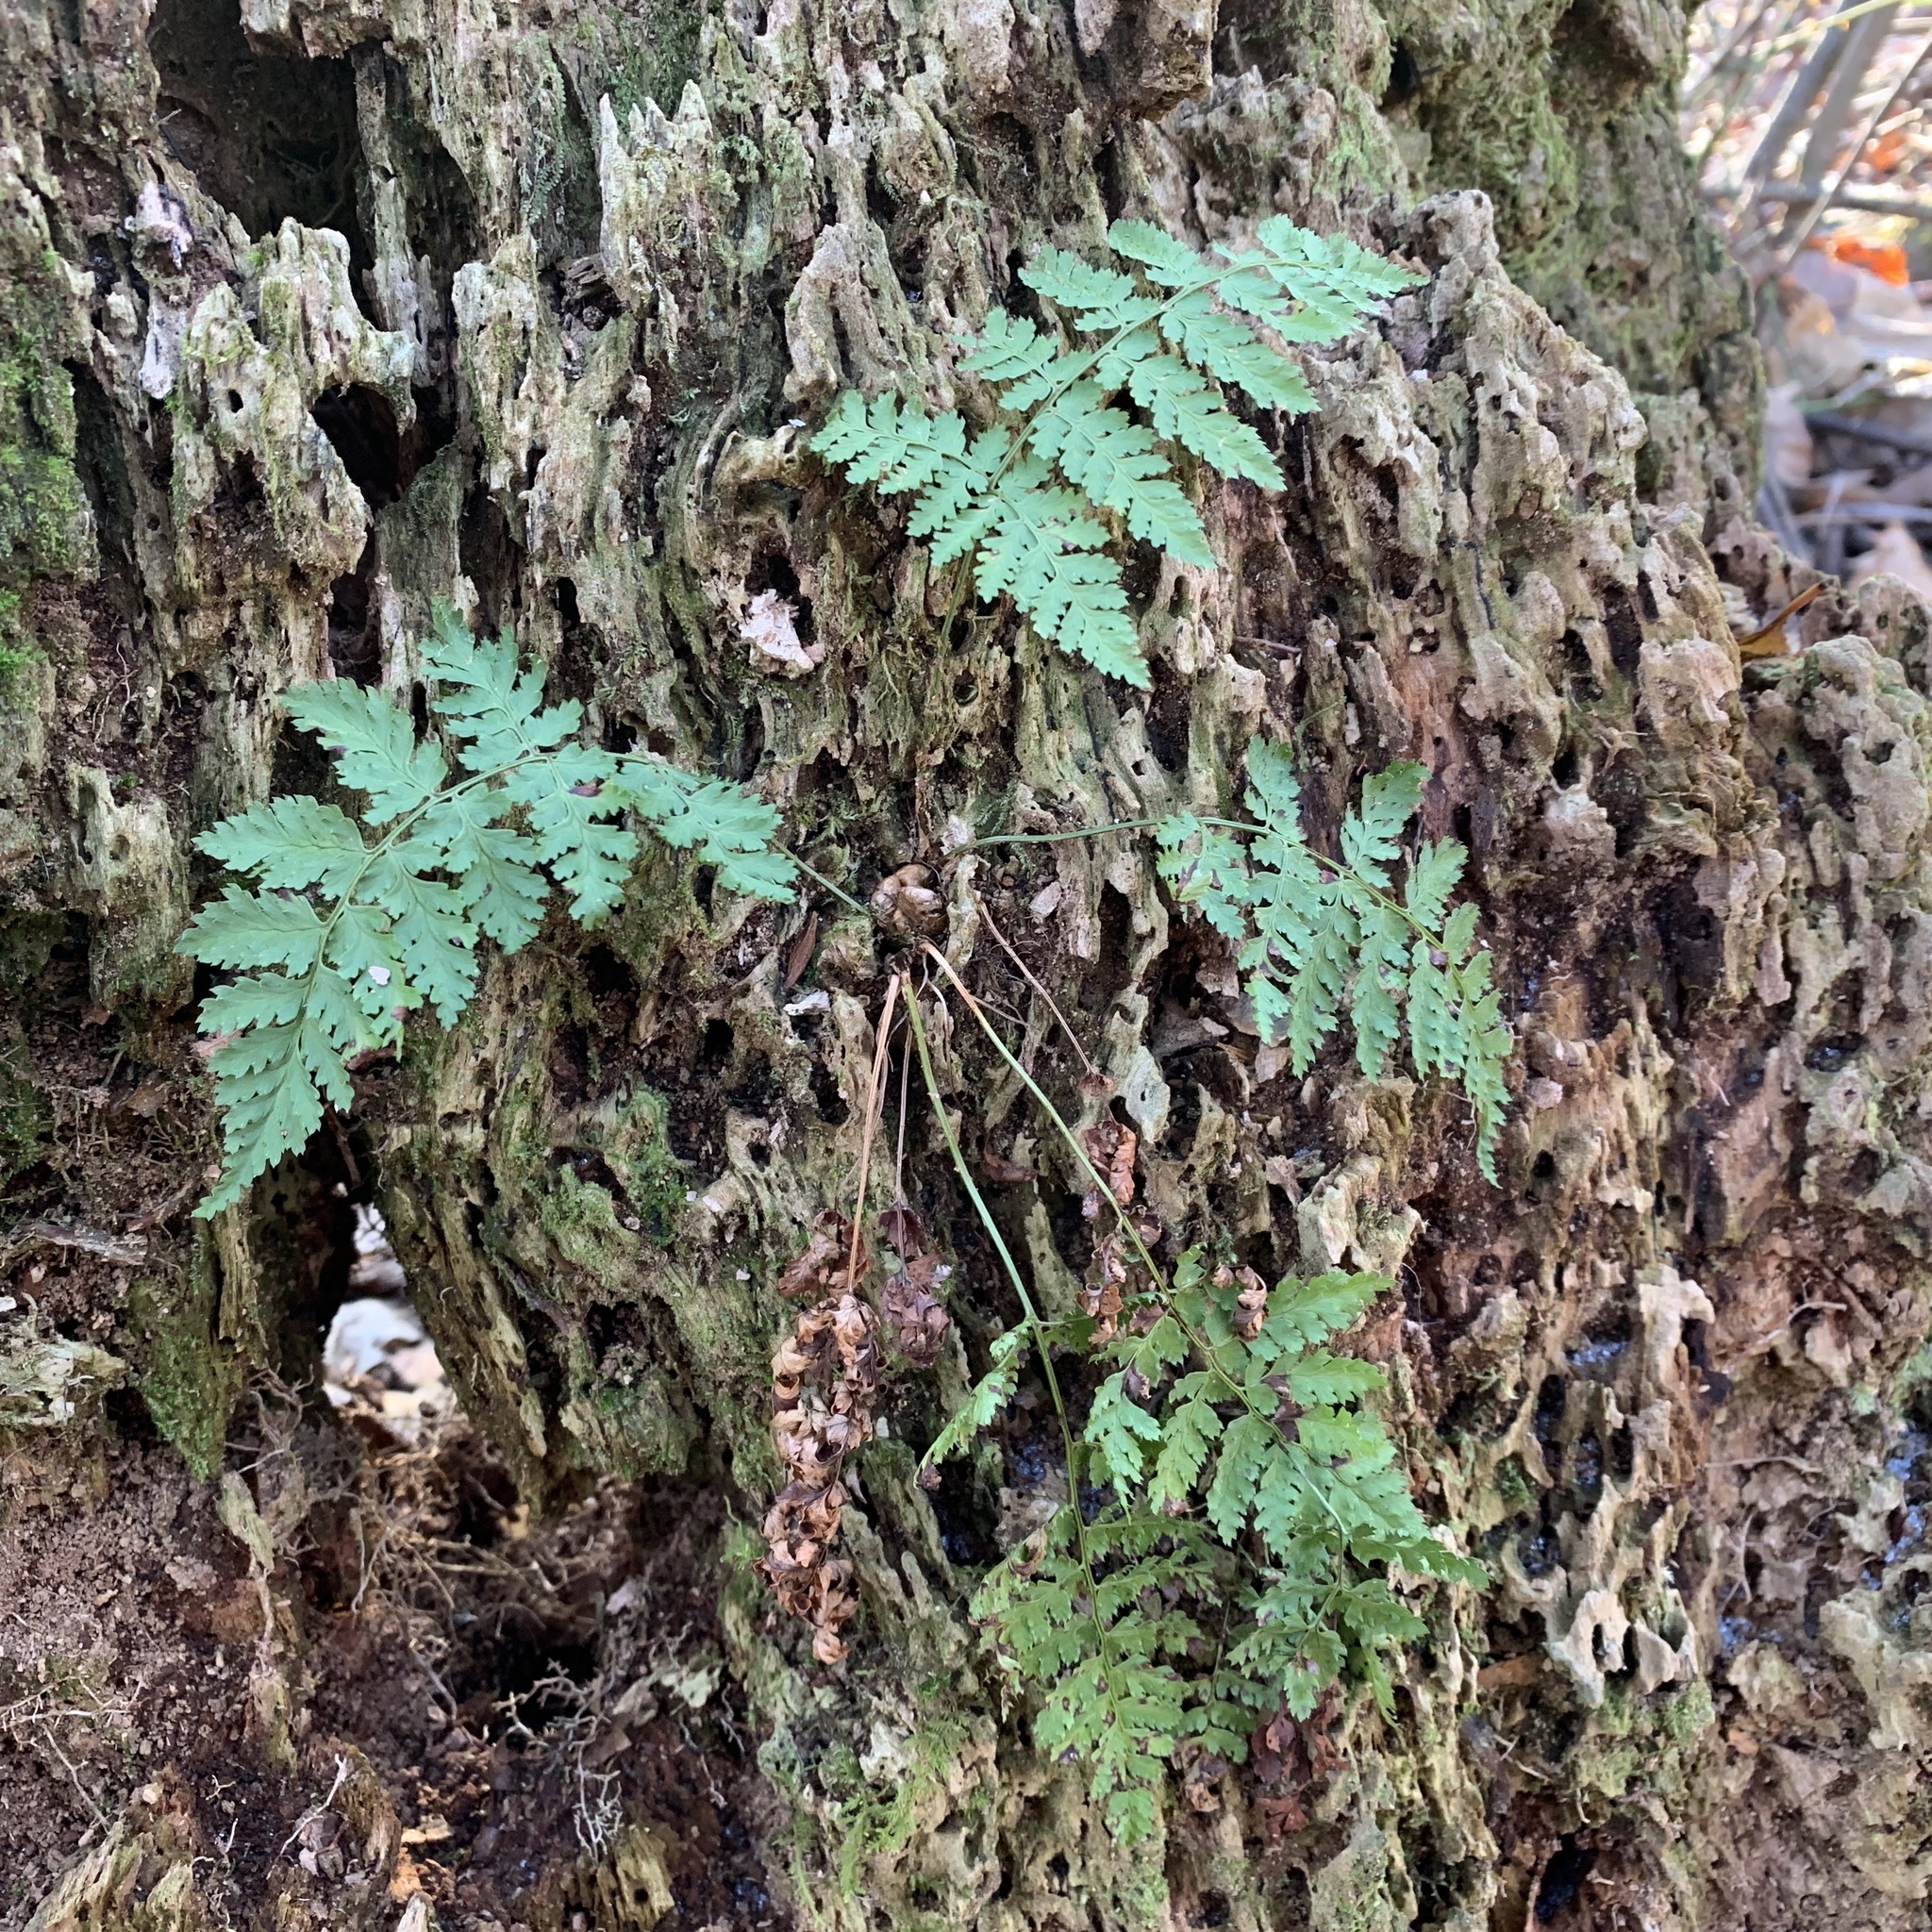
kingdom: Plantae
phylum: Tracheophyta
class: Polypodiopsida
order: Polypodiales
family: Dryopteridaceae
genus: Dryopteris
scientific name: Dryopteris intermedia
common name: Evergreen wood fern
